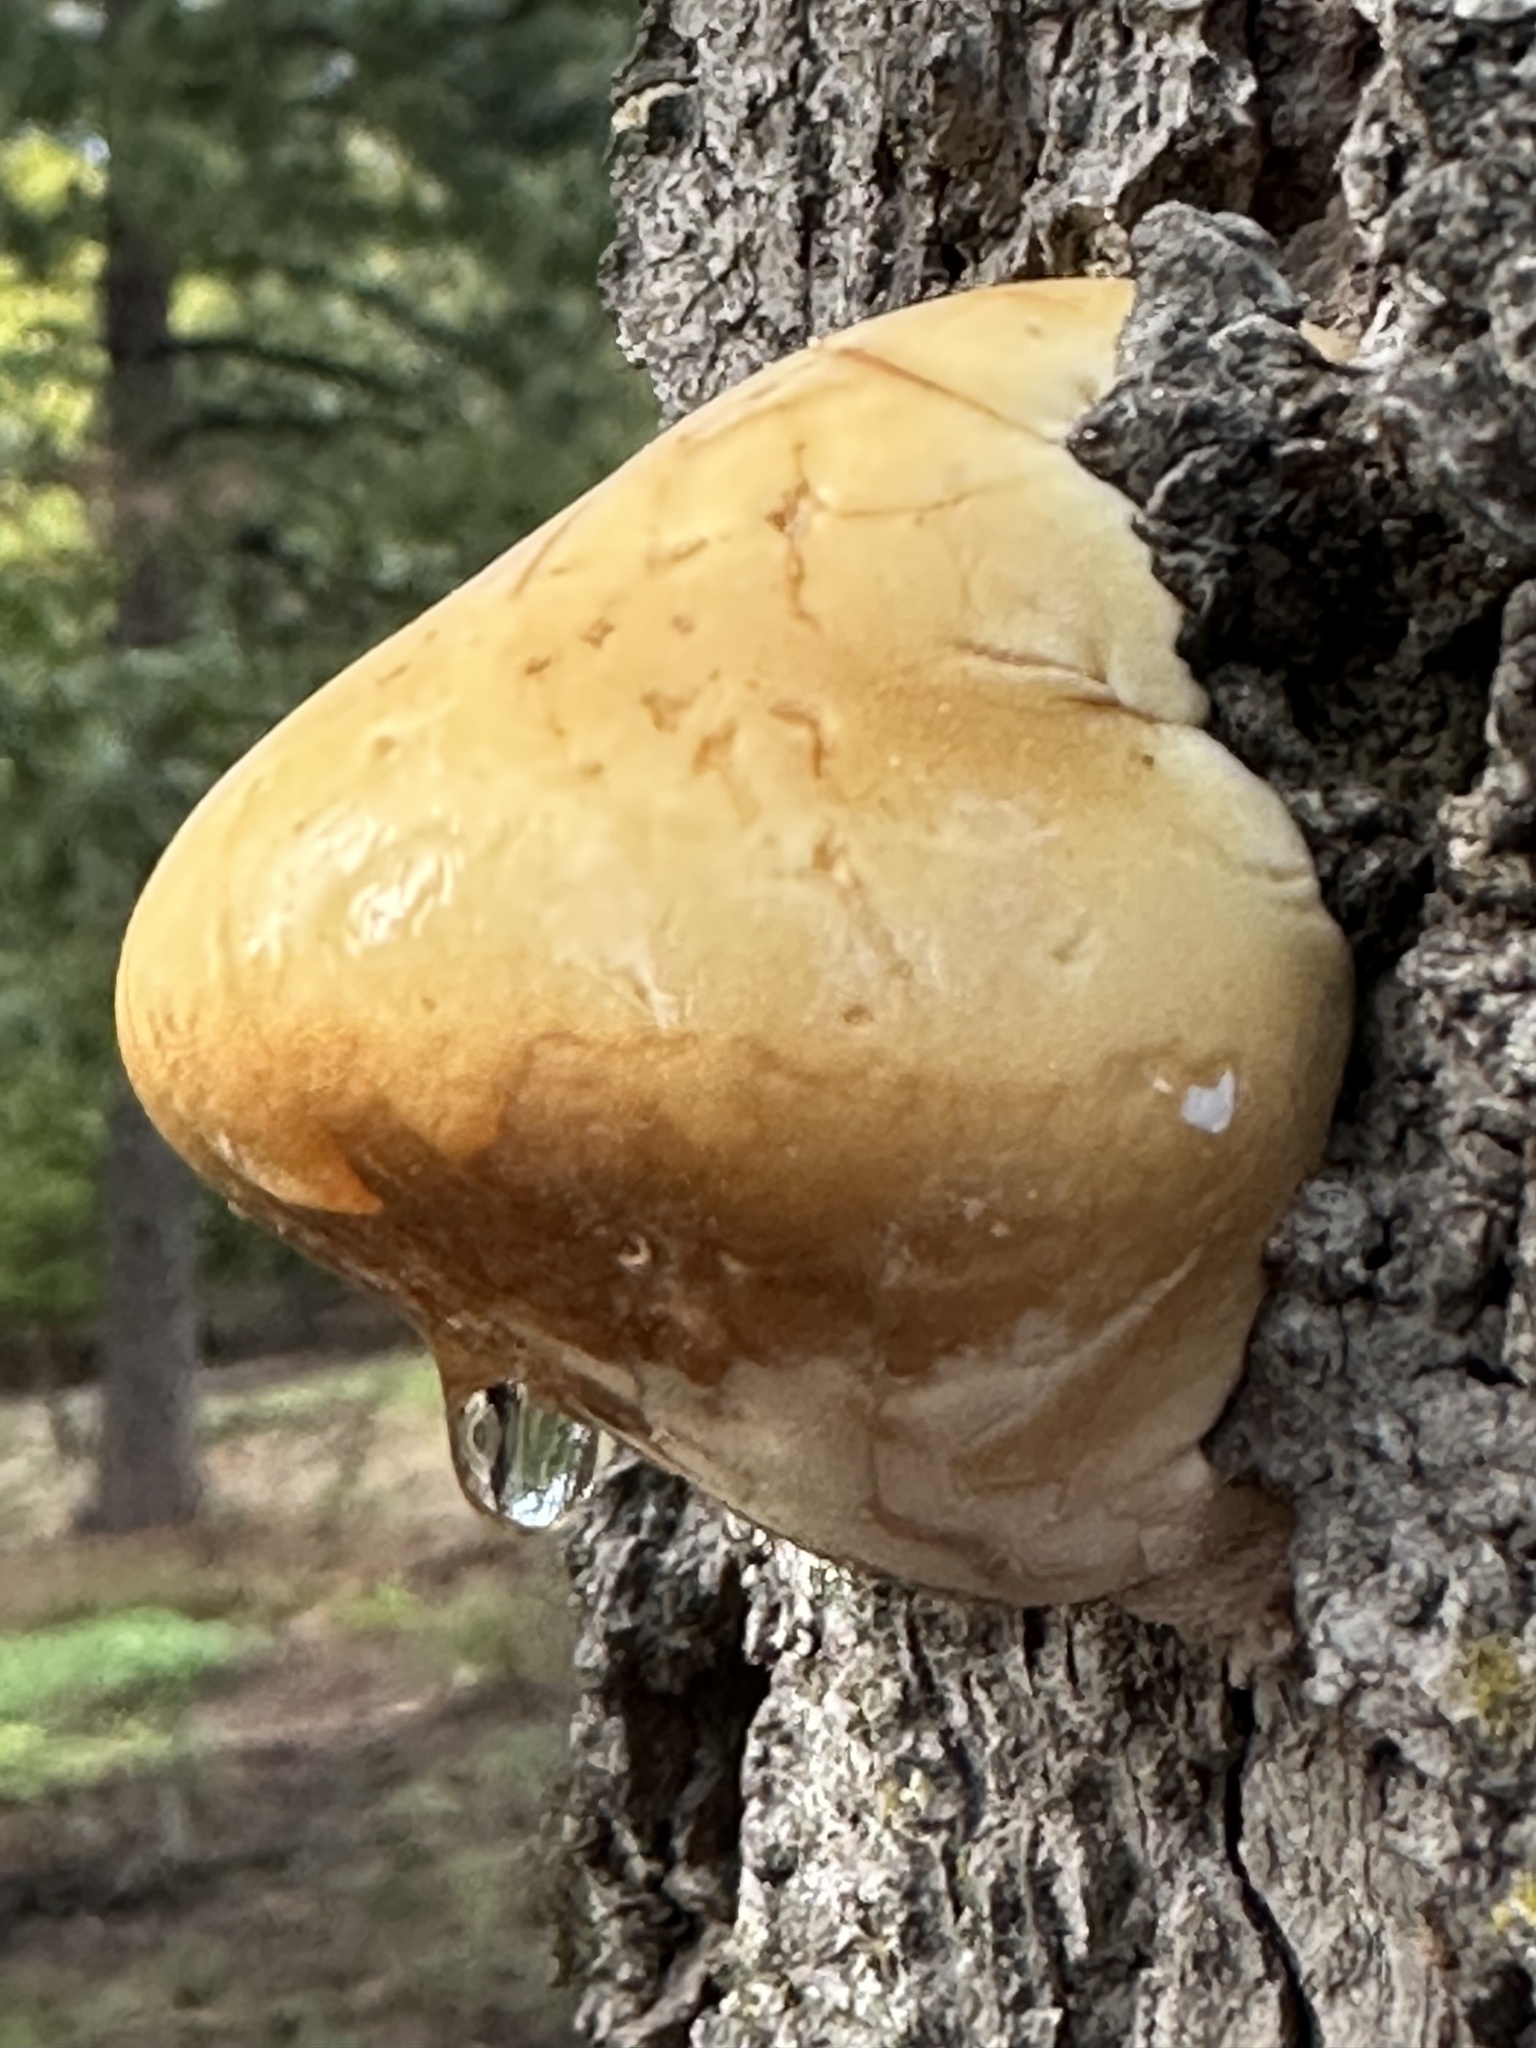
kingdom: Fungi
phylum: Basidiomycota
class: Agaricomycetes
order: Polyporales
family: Polyporaceae
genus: Cryptoporus
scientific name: Cryptoporus volvatus
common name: Veiled polypore
